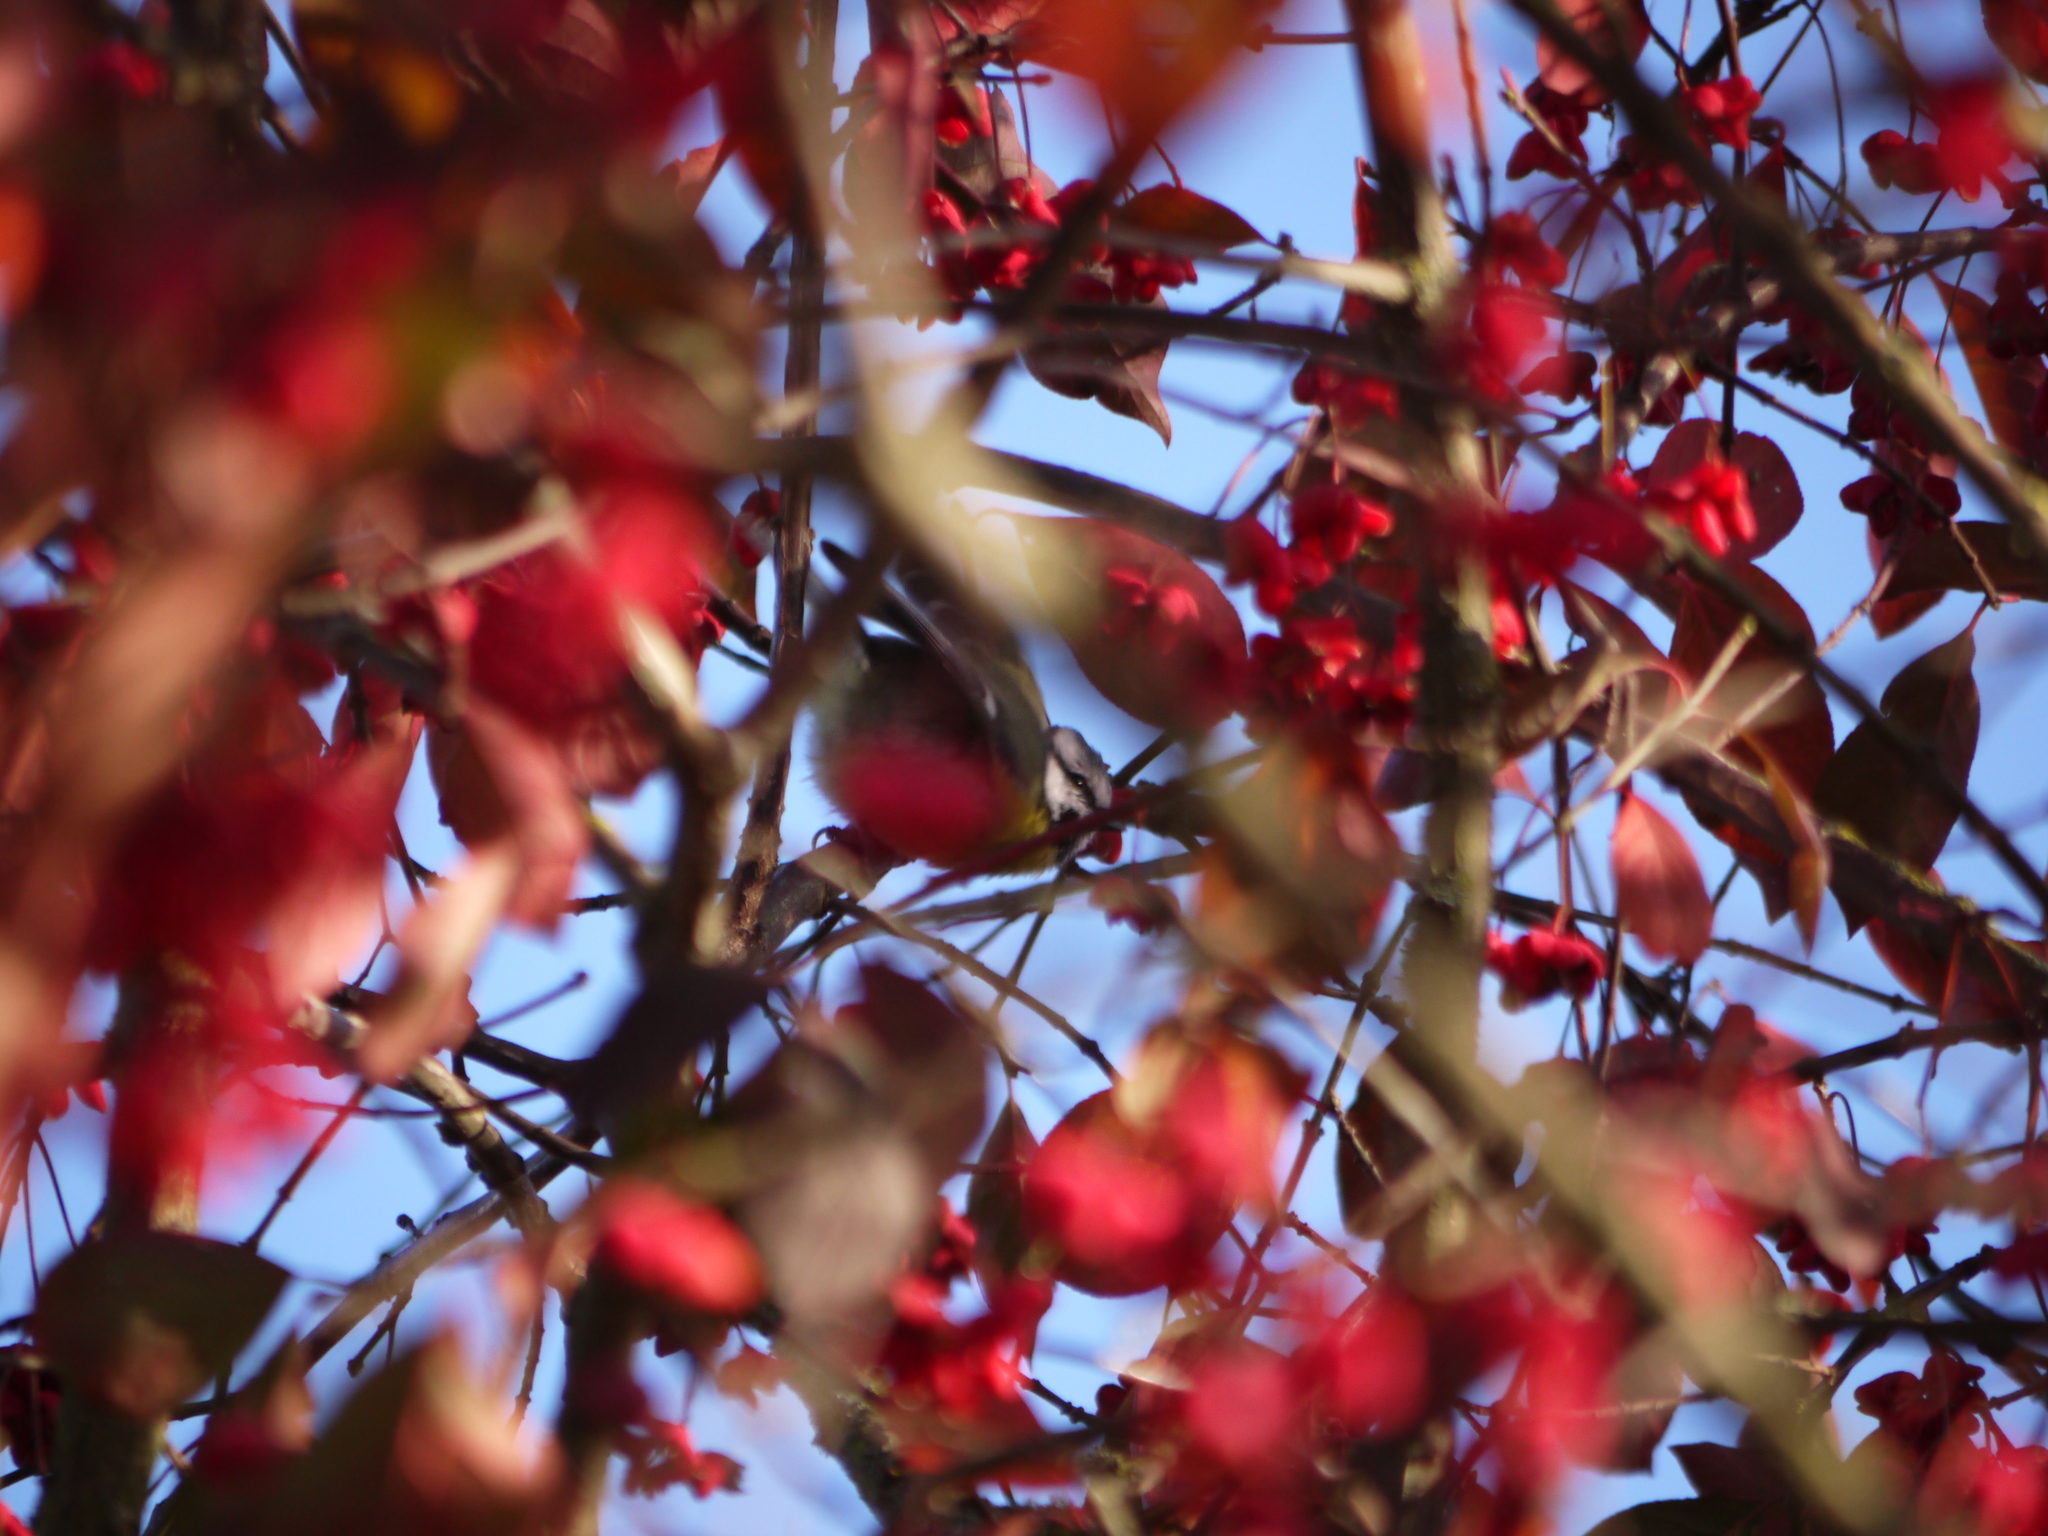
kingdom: Animalia
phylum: Chordata
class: Aves
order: Passeriformes
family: Paridae
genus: Cyanistes
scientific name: Cyanistes caeruleus
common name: Eurasian blue tit
